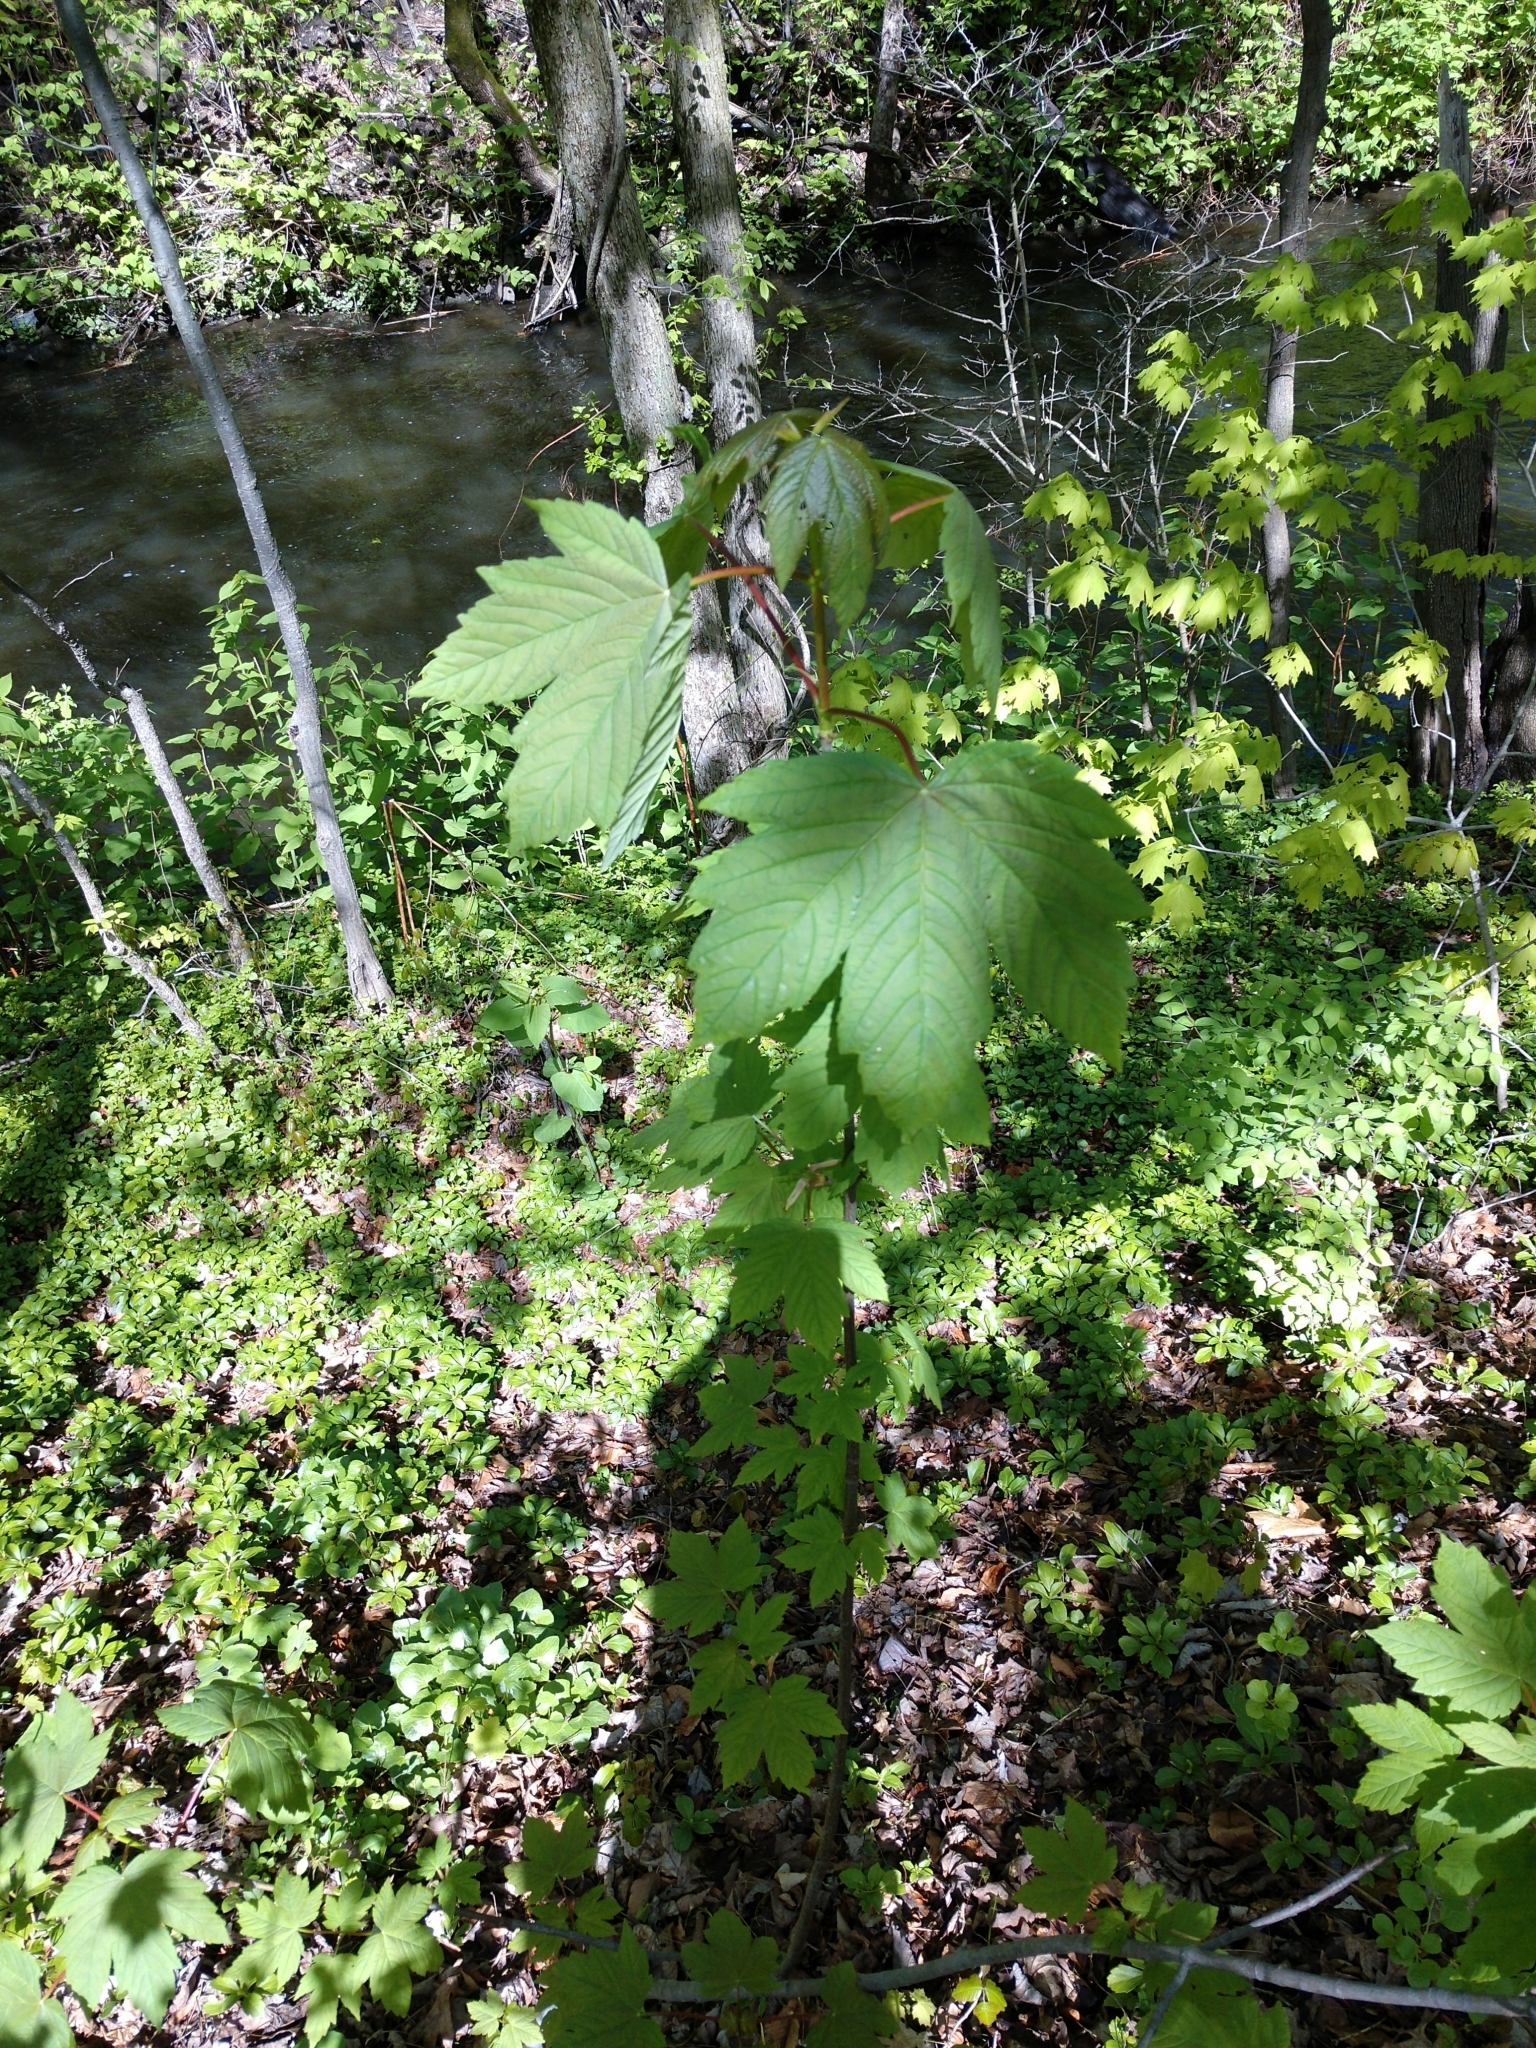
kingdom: Plantae
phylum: Tracheophyta
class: Magnoliopsida
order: Sapindales
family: Sapindaceae
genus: Acer
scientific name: Acer pseudoplatanus
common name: Sycamore
